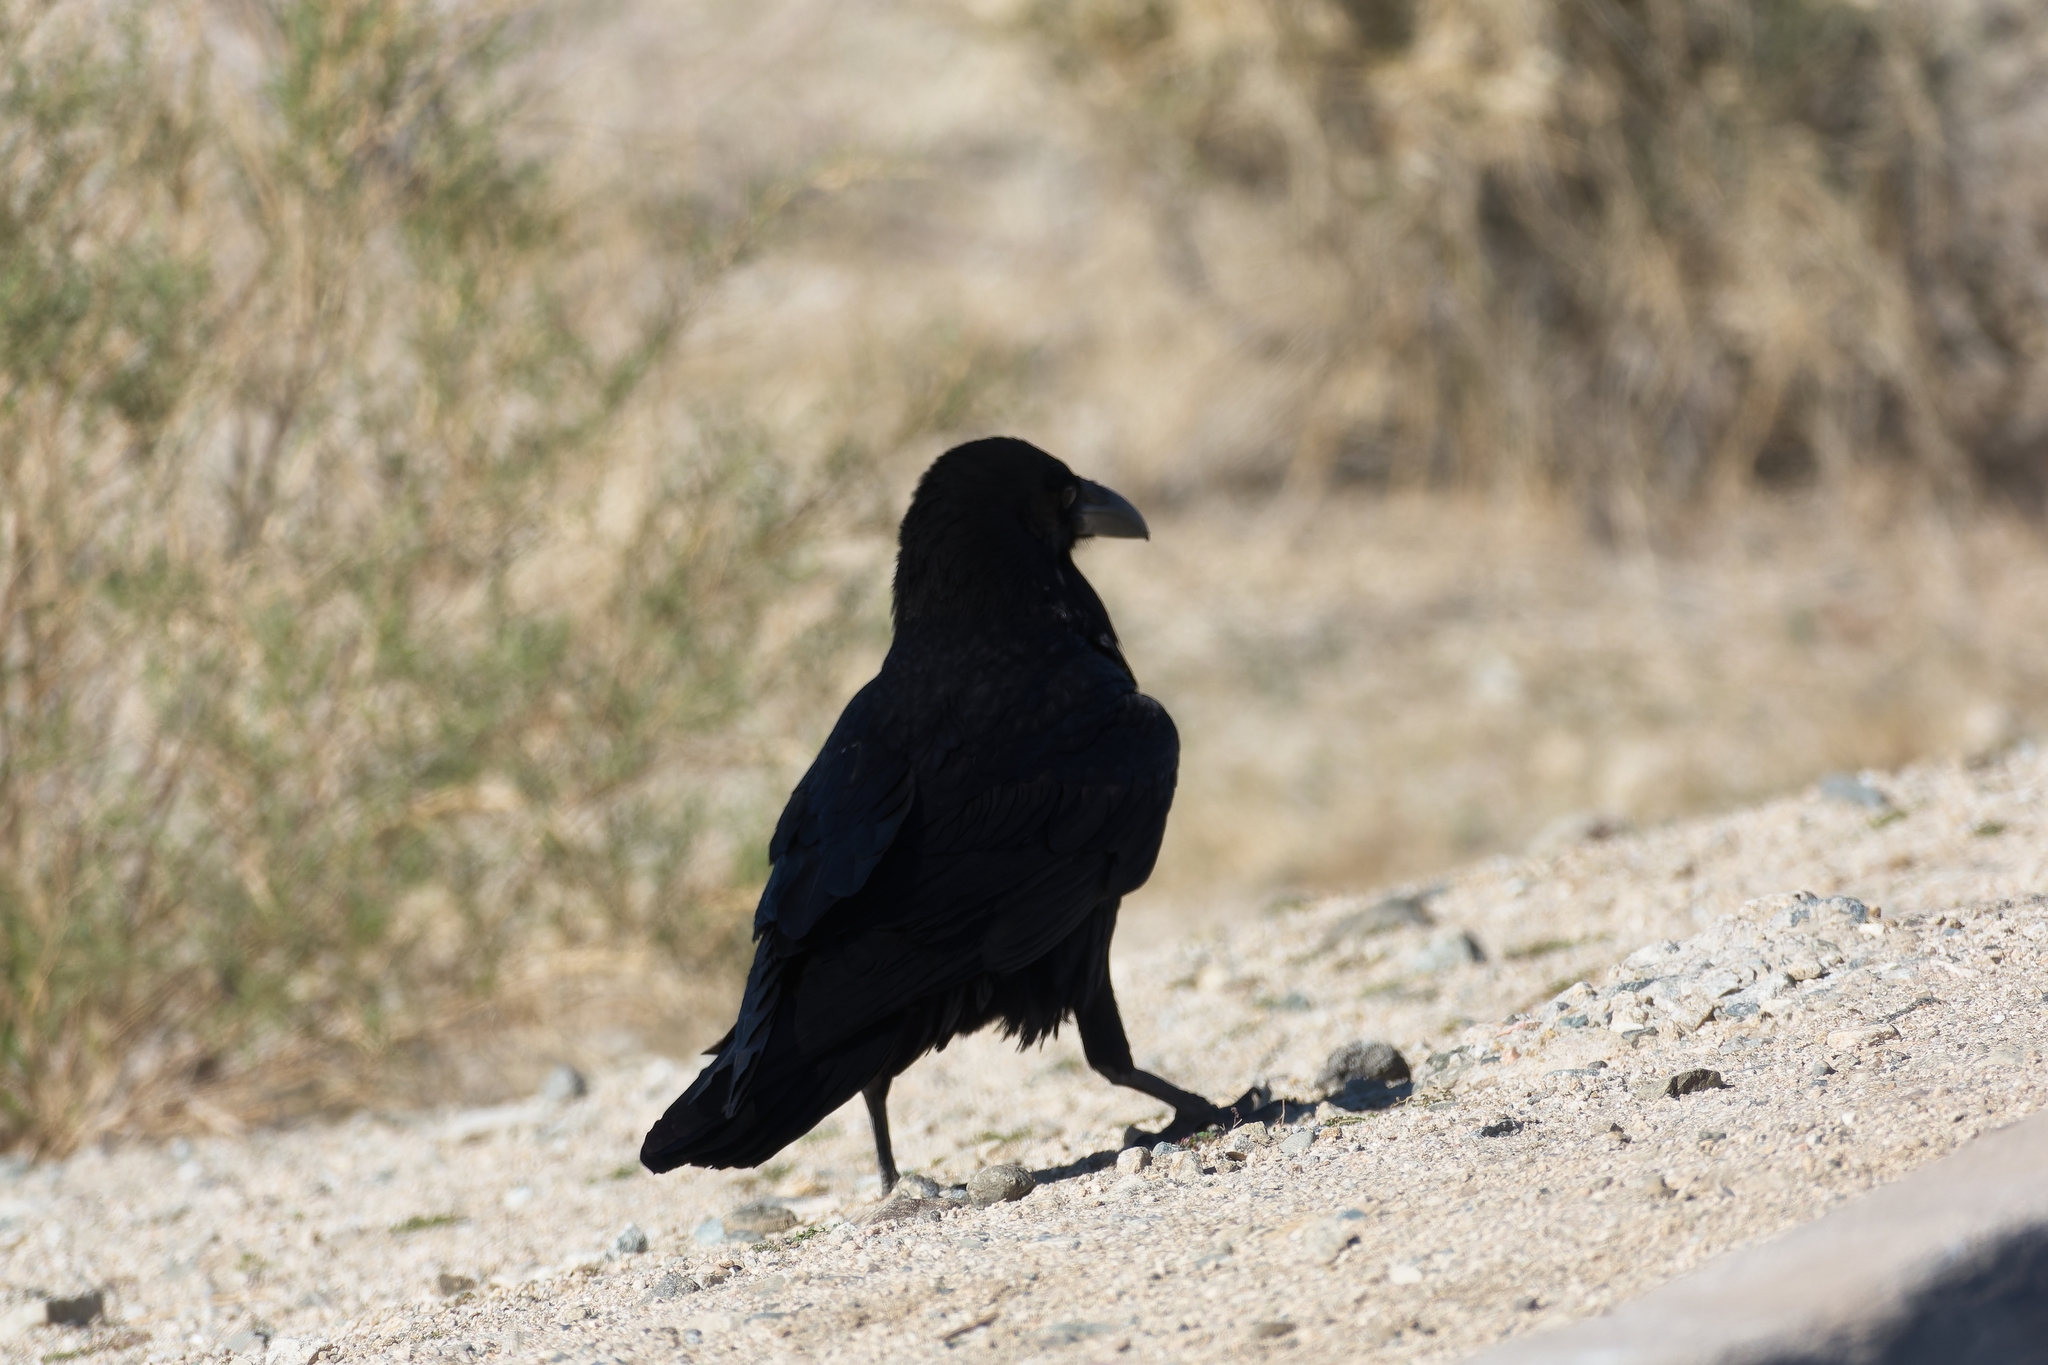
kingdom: Animalia
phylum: Chordata
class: Aves
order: Passeriformes
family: Corvidae
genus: Corvus
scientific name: Corvus corax
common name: Common raven
